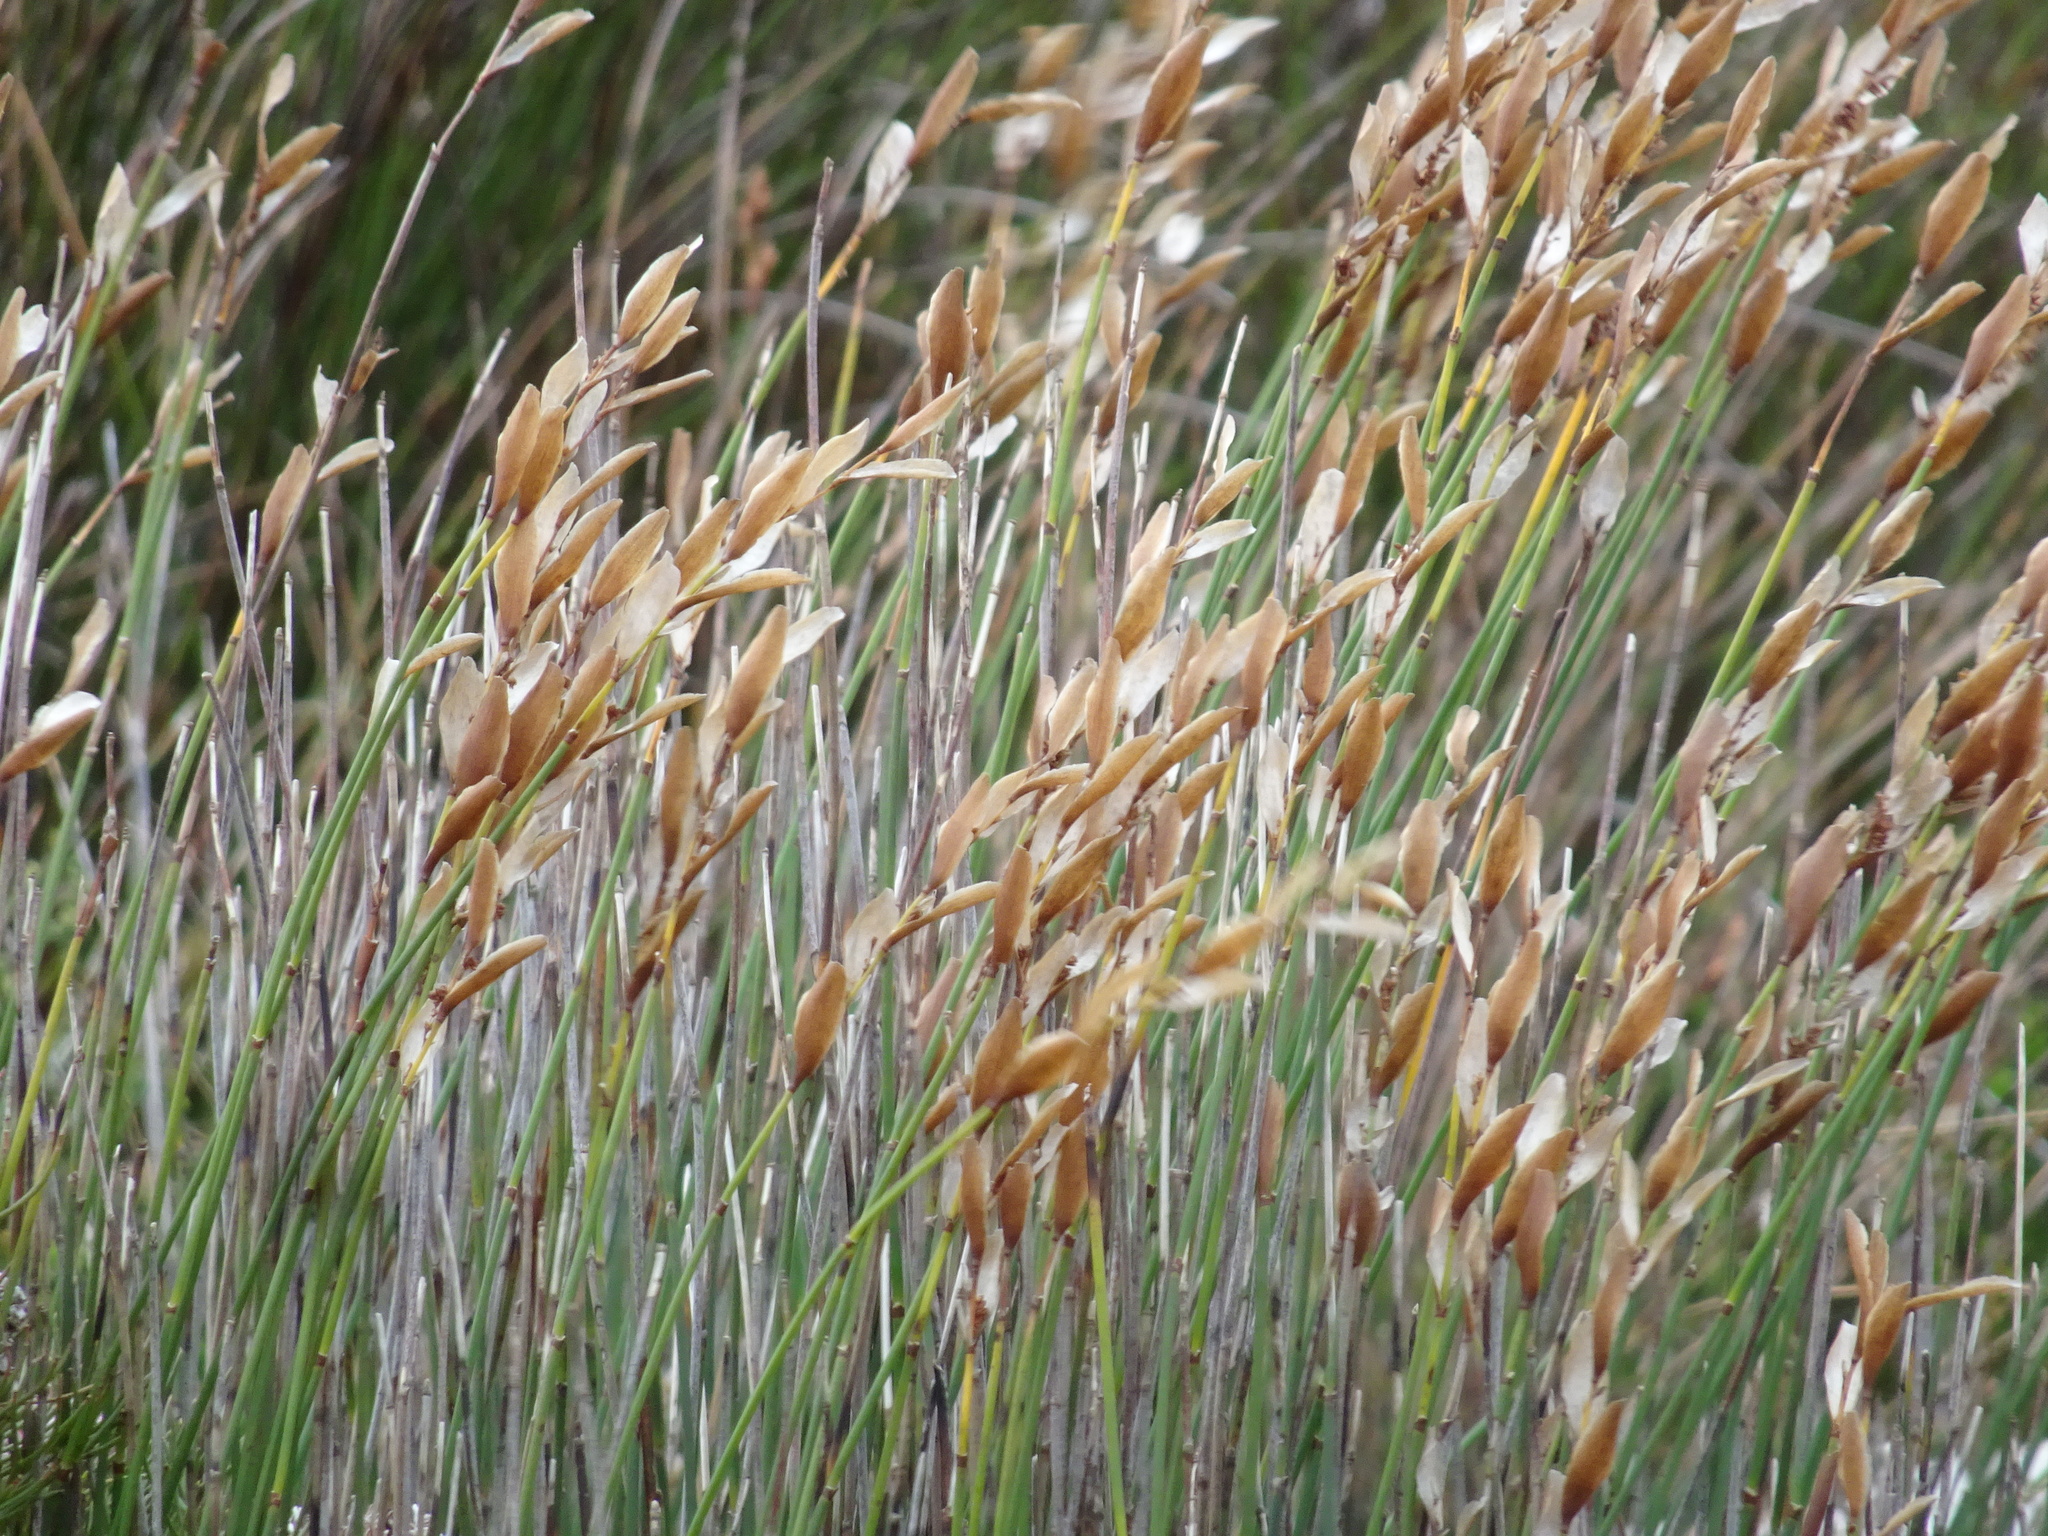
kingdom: Plantae
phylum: Tracheophyta
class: Liliopsida
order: Poales
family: Restionaceae
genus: Elegia
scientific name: Elegia filacea
